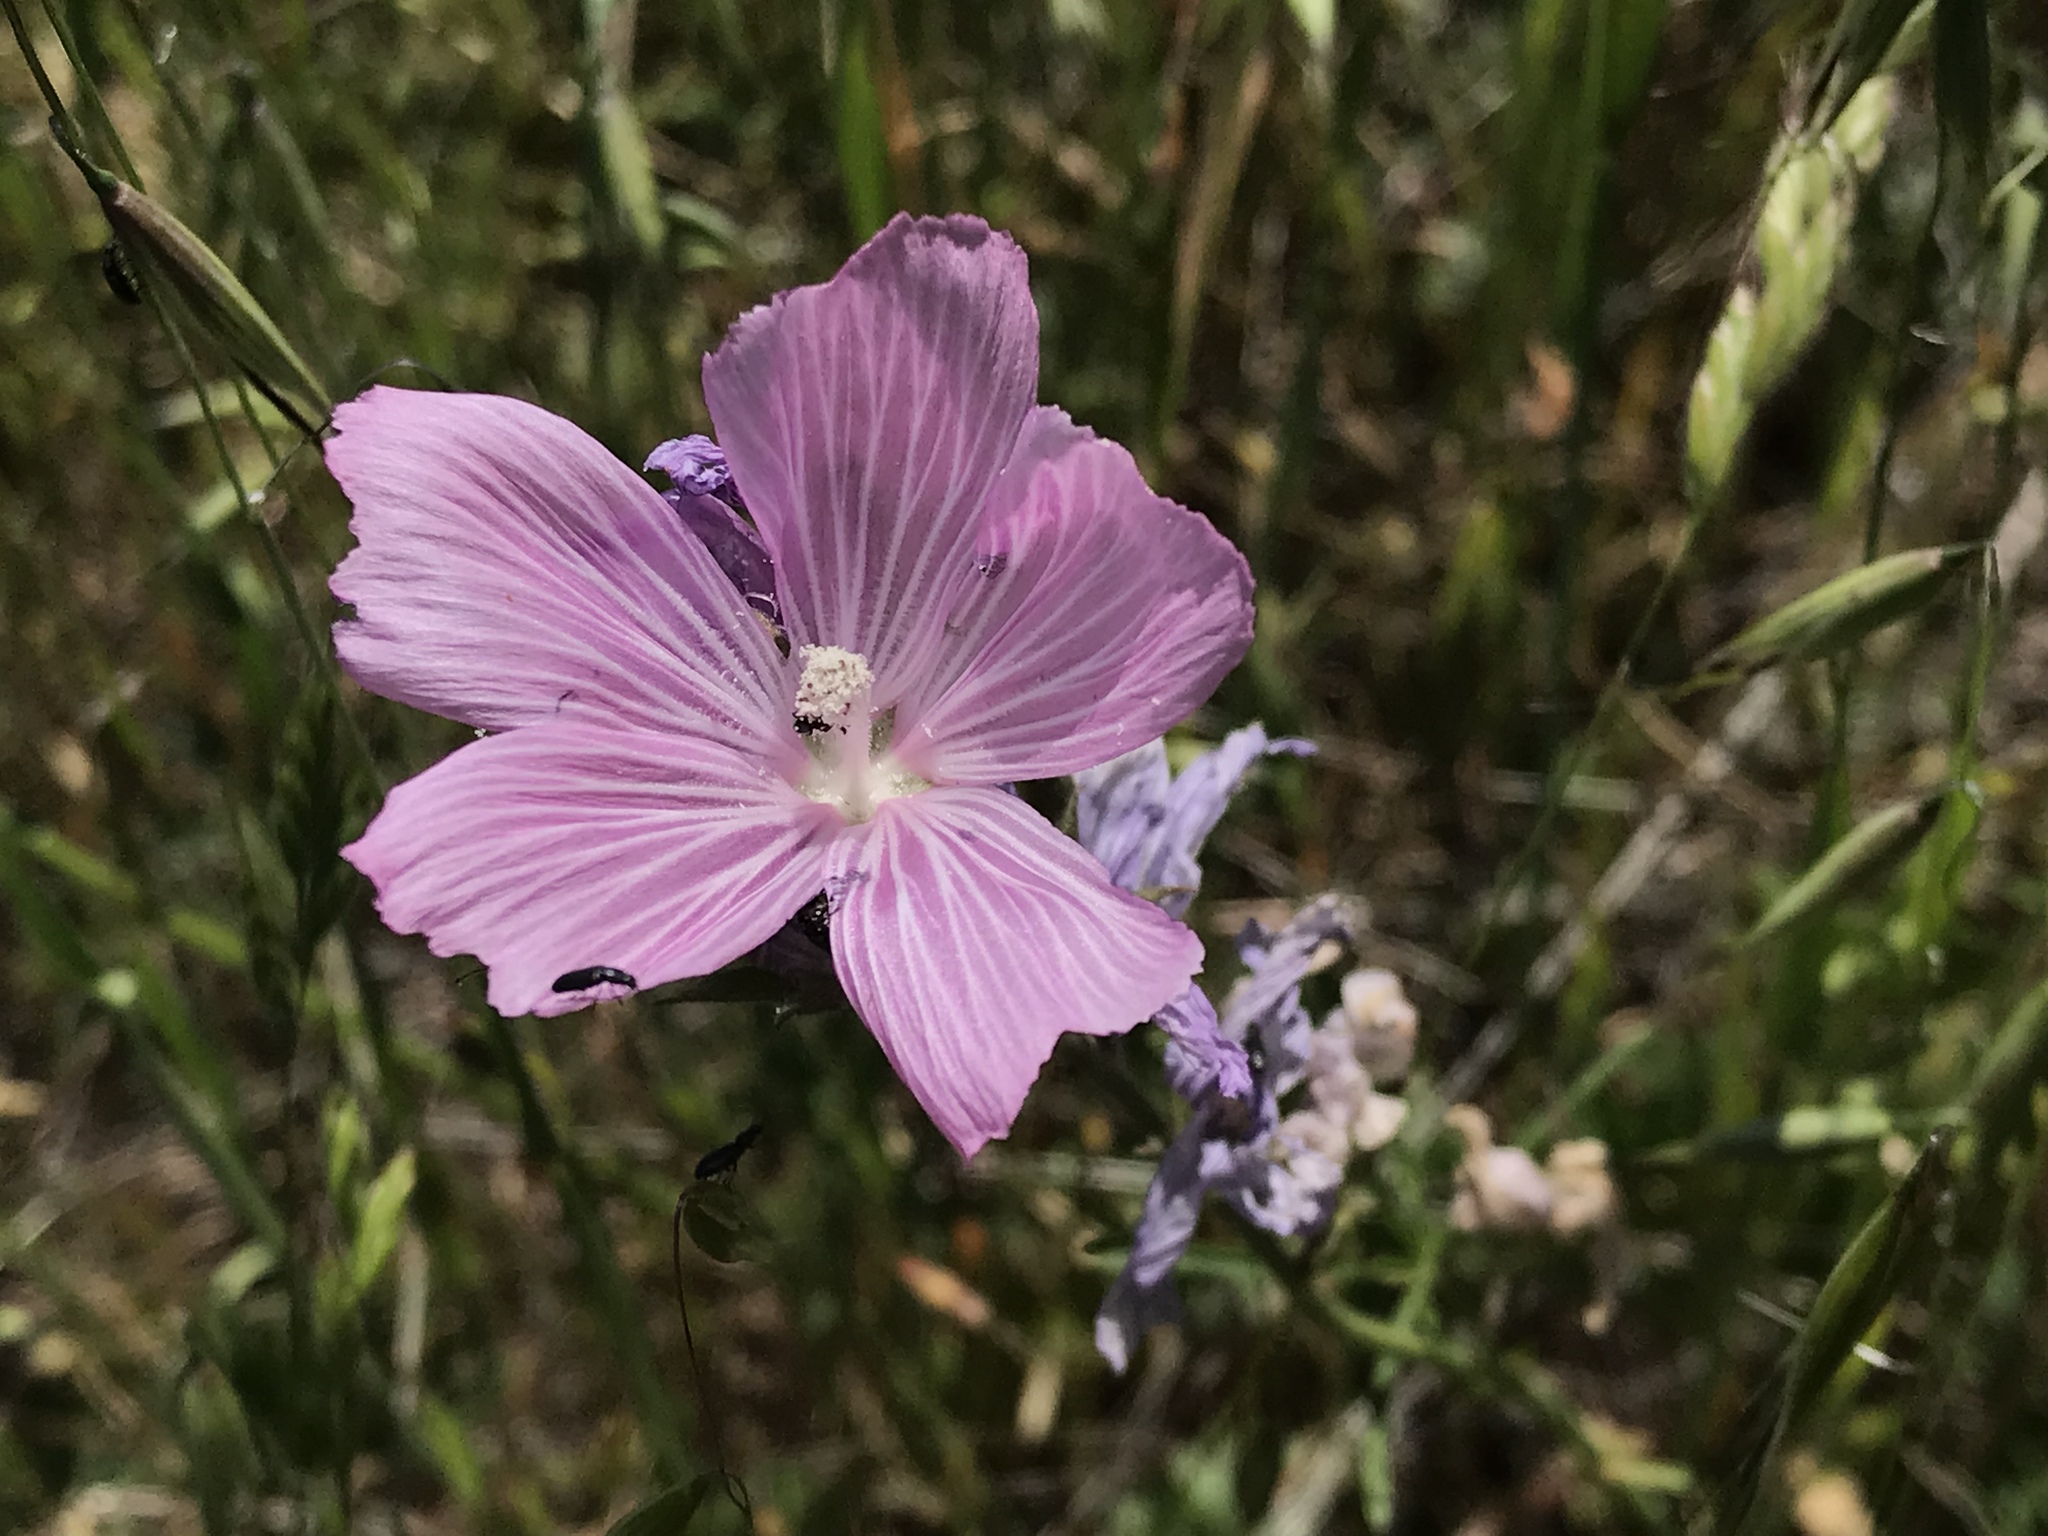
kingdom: Plantae
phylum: Tracheophyta
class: Magnoliopsida
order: Malvales
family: Malvaceae
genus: Sidalcea
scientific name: Sidalcea malviflora
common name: Greek mallow
